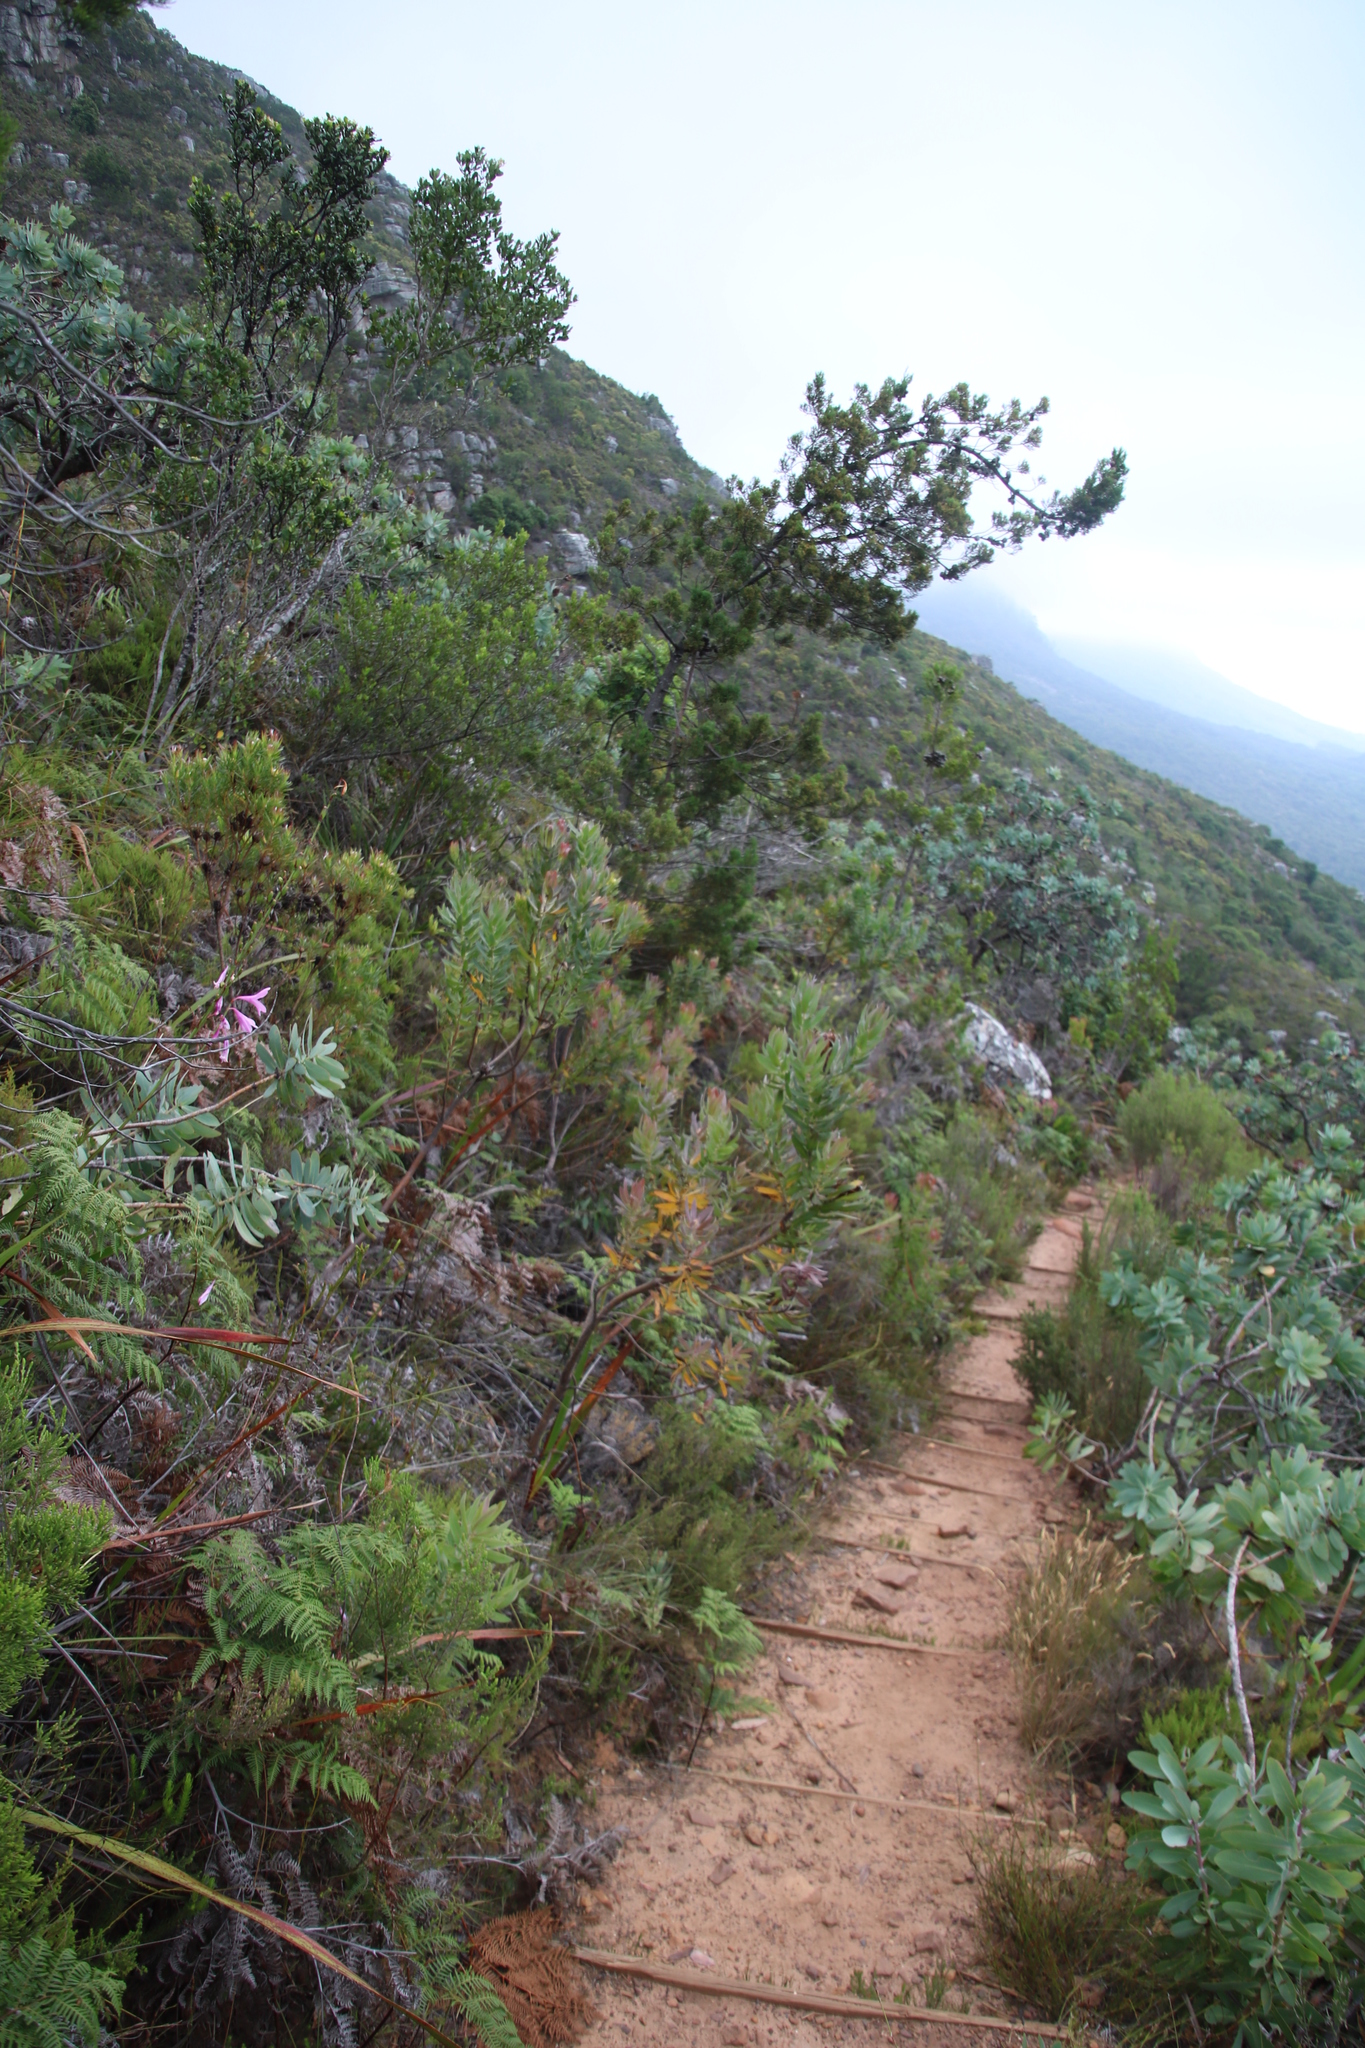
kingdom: Plantae
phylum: Tracheophyta
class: Magnoliopsida
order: Proteales
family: Proteaceae
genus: Protea
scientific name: Protea coronata
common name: Green sugarbush
